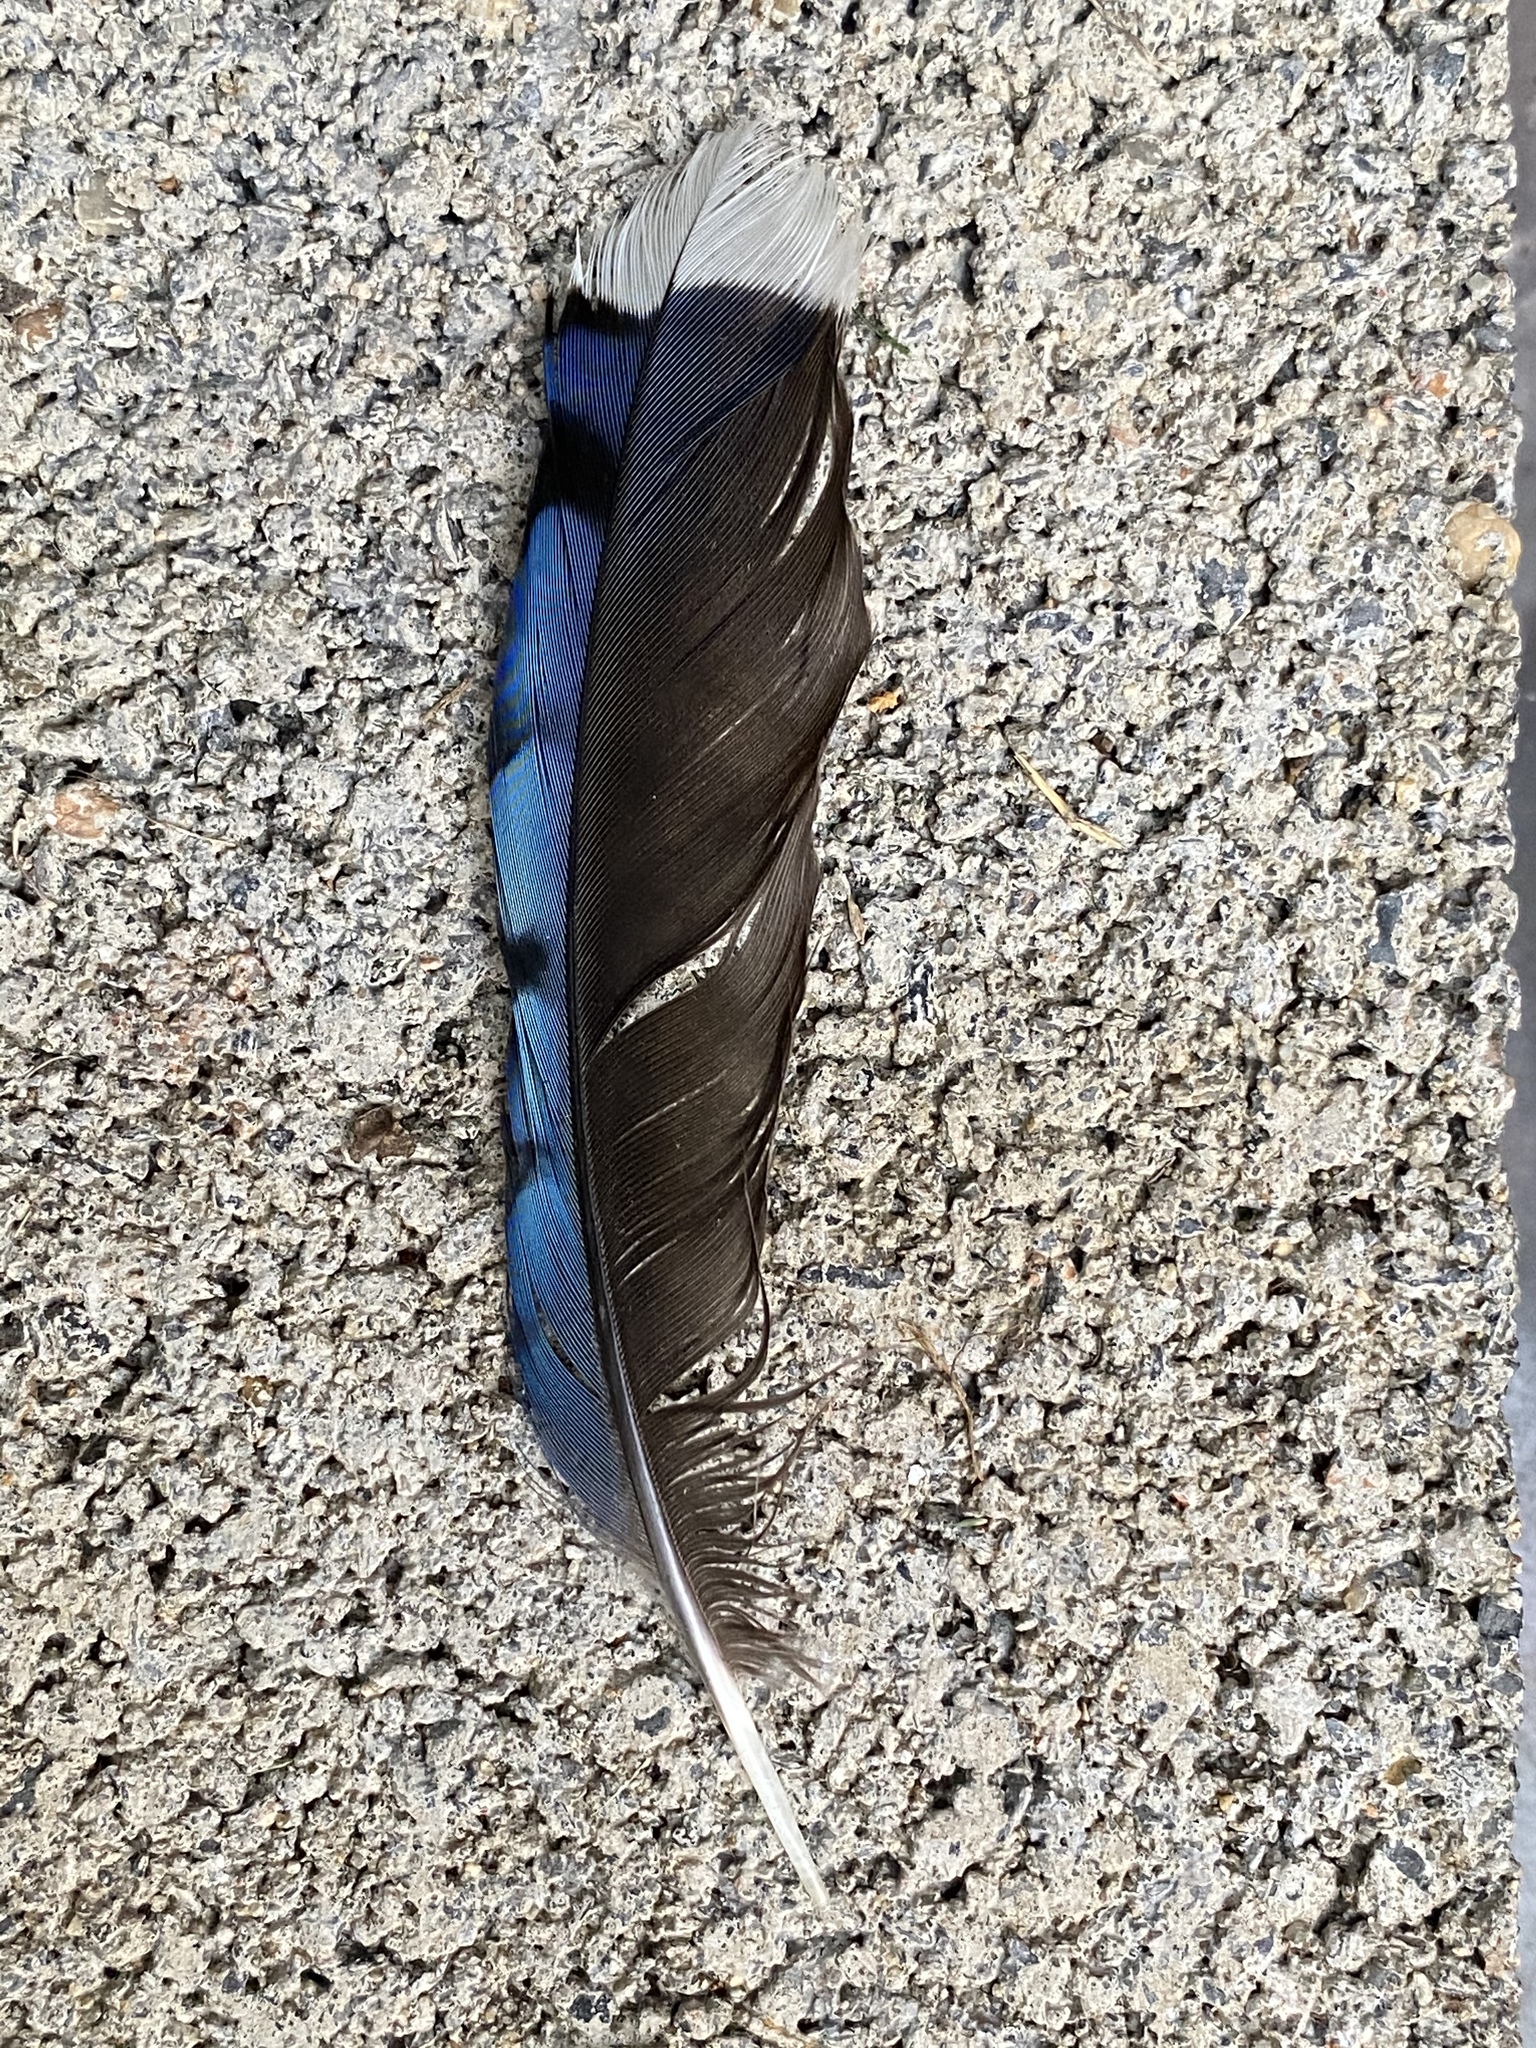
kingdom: Animalia
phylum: Chordata
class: Aves
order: Passeriformes
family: Corvidae
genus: Cyanocitta
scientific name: Cyanocitta cristata
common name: Blue jay
